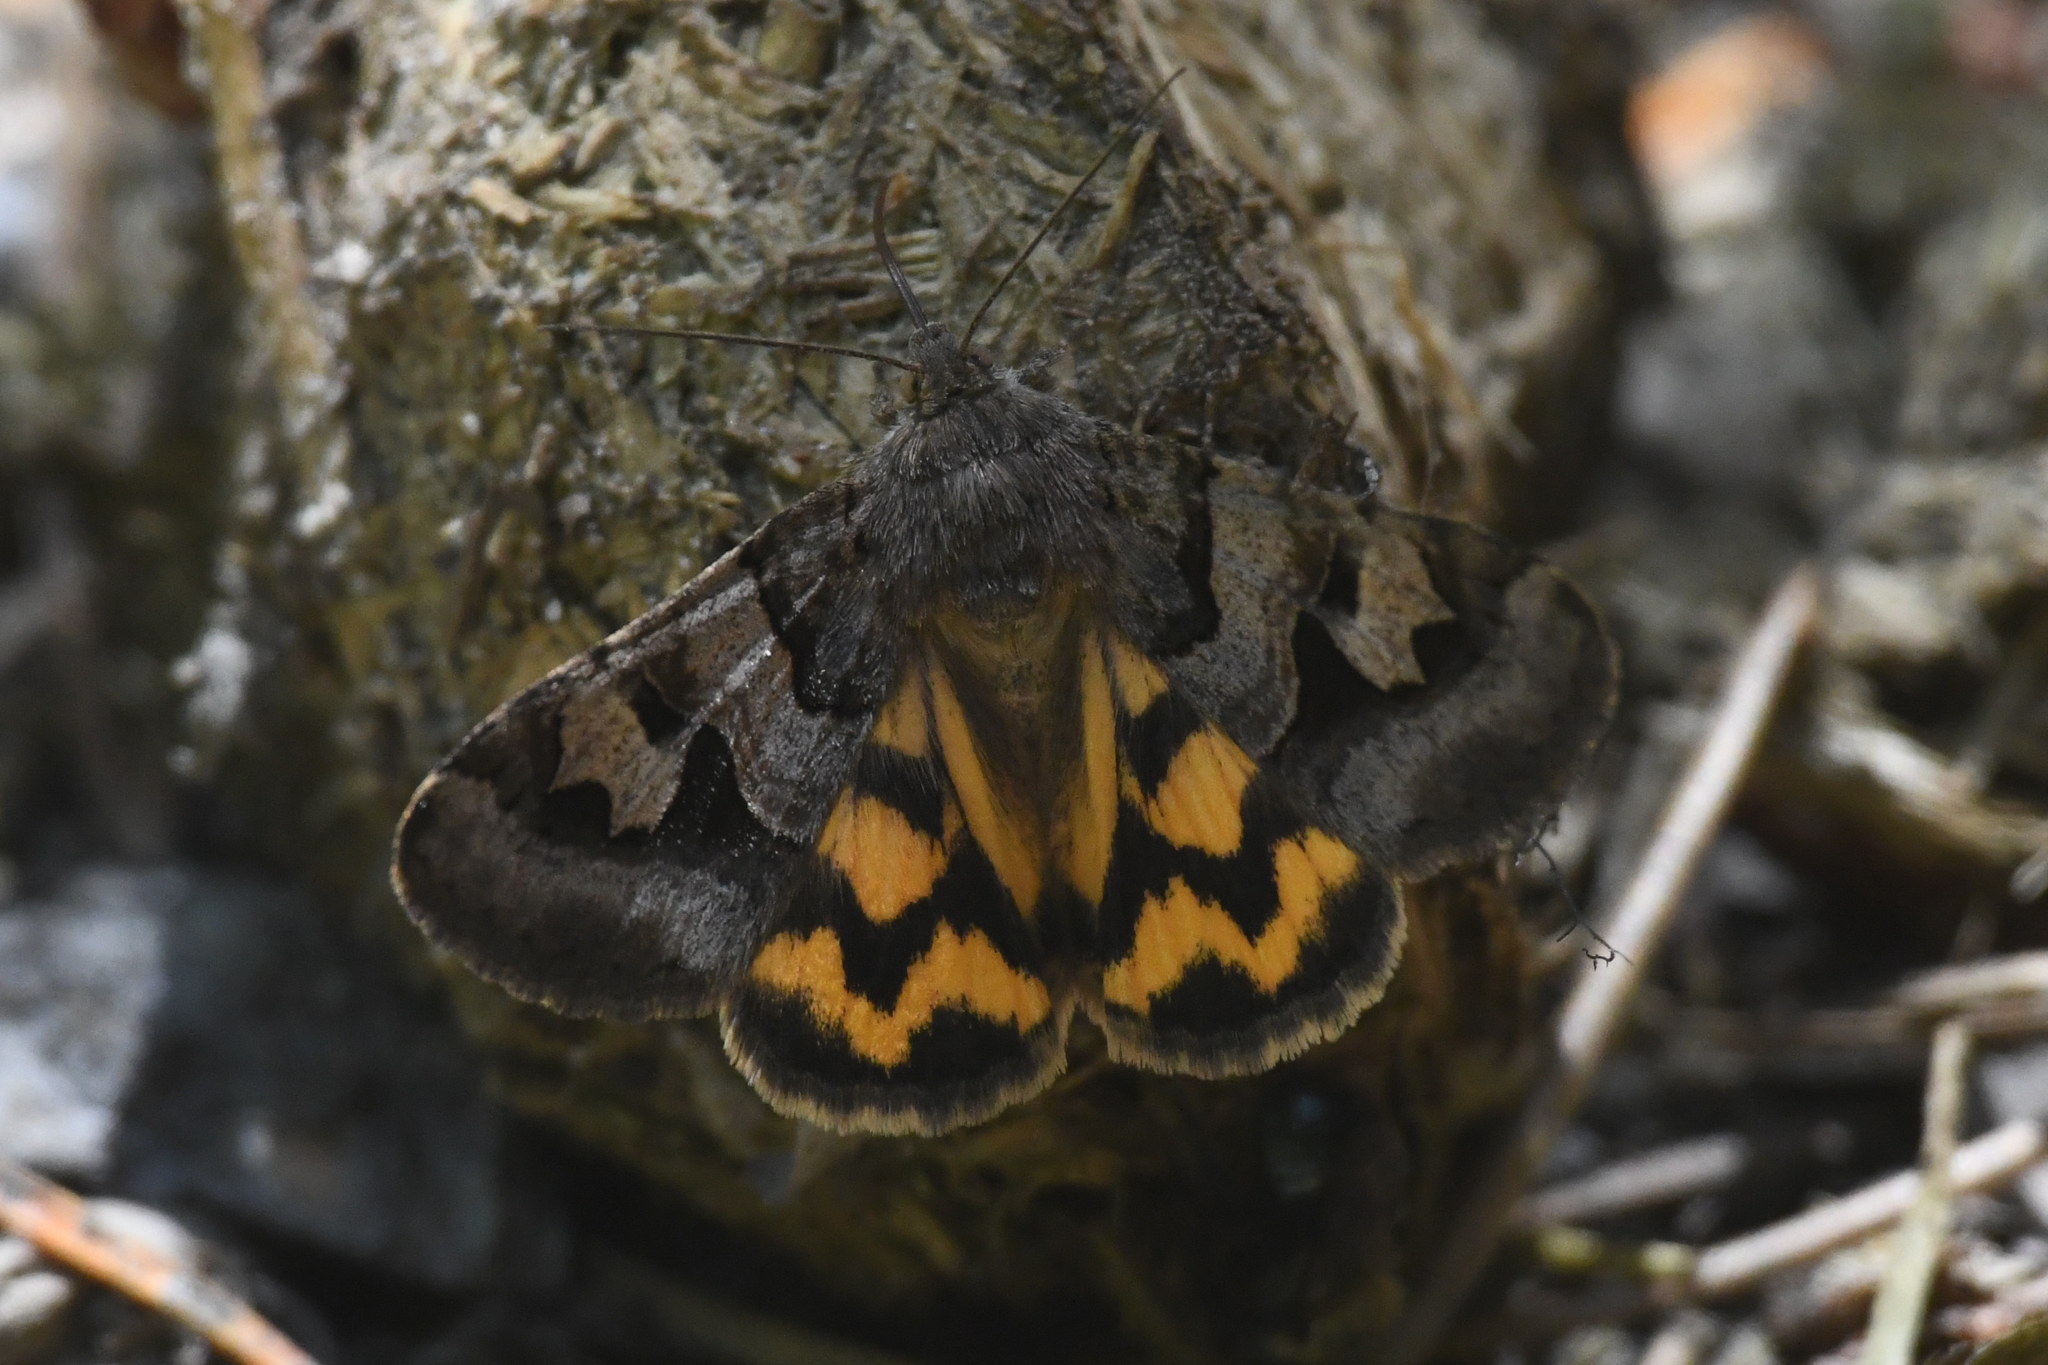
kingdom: Animalia
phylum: Arthropoda
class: Insecta
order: Lepidoptera
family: Erebidae
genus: Drasteria
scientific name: Drasteria adumbrata
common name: Shadowy arches
